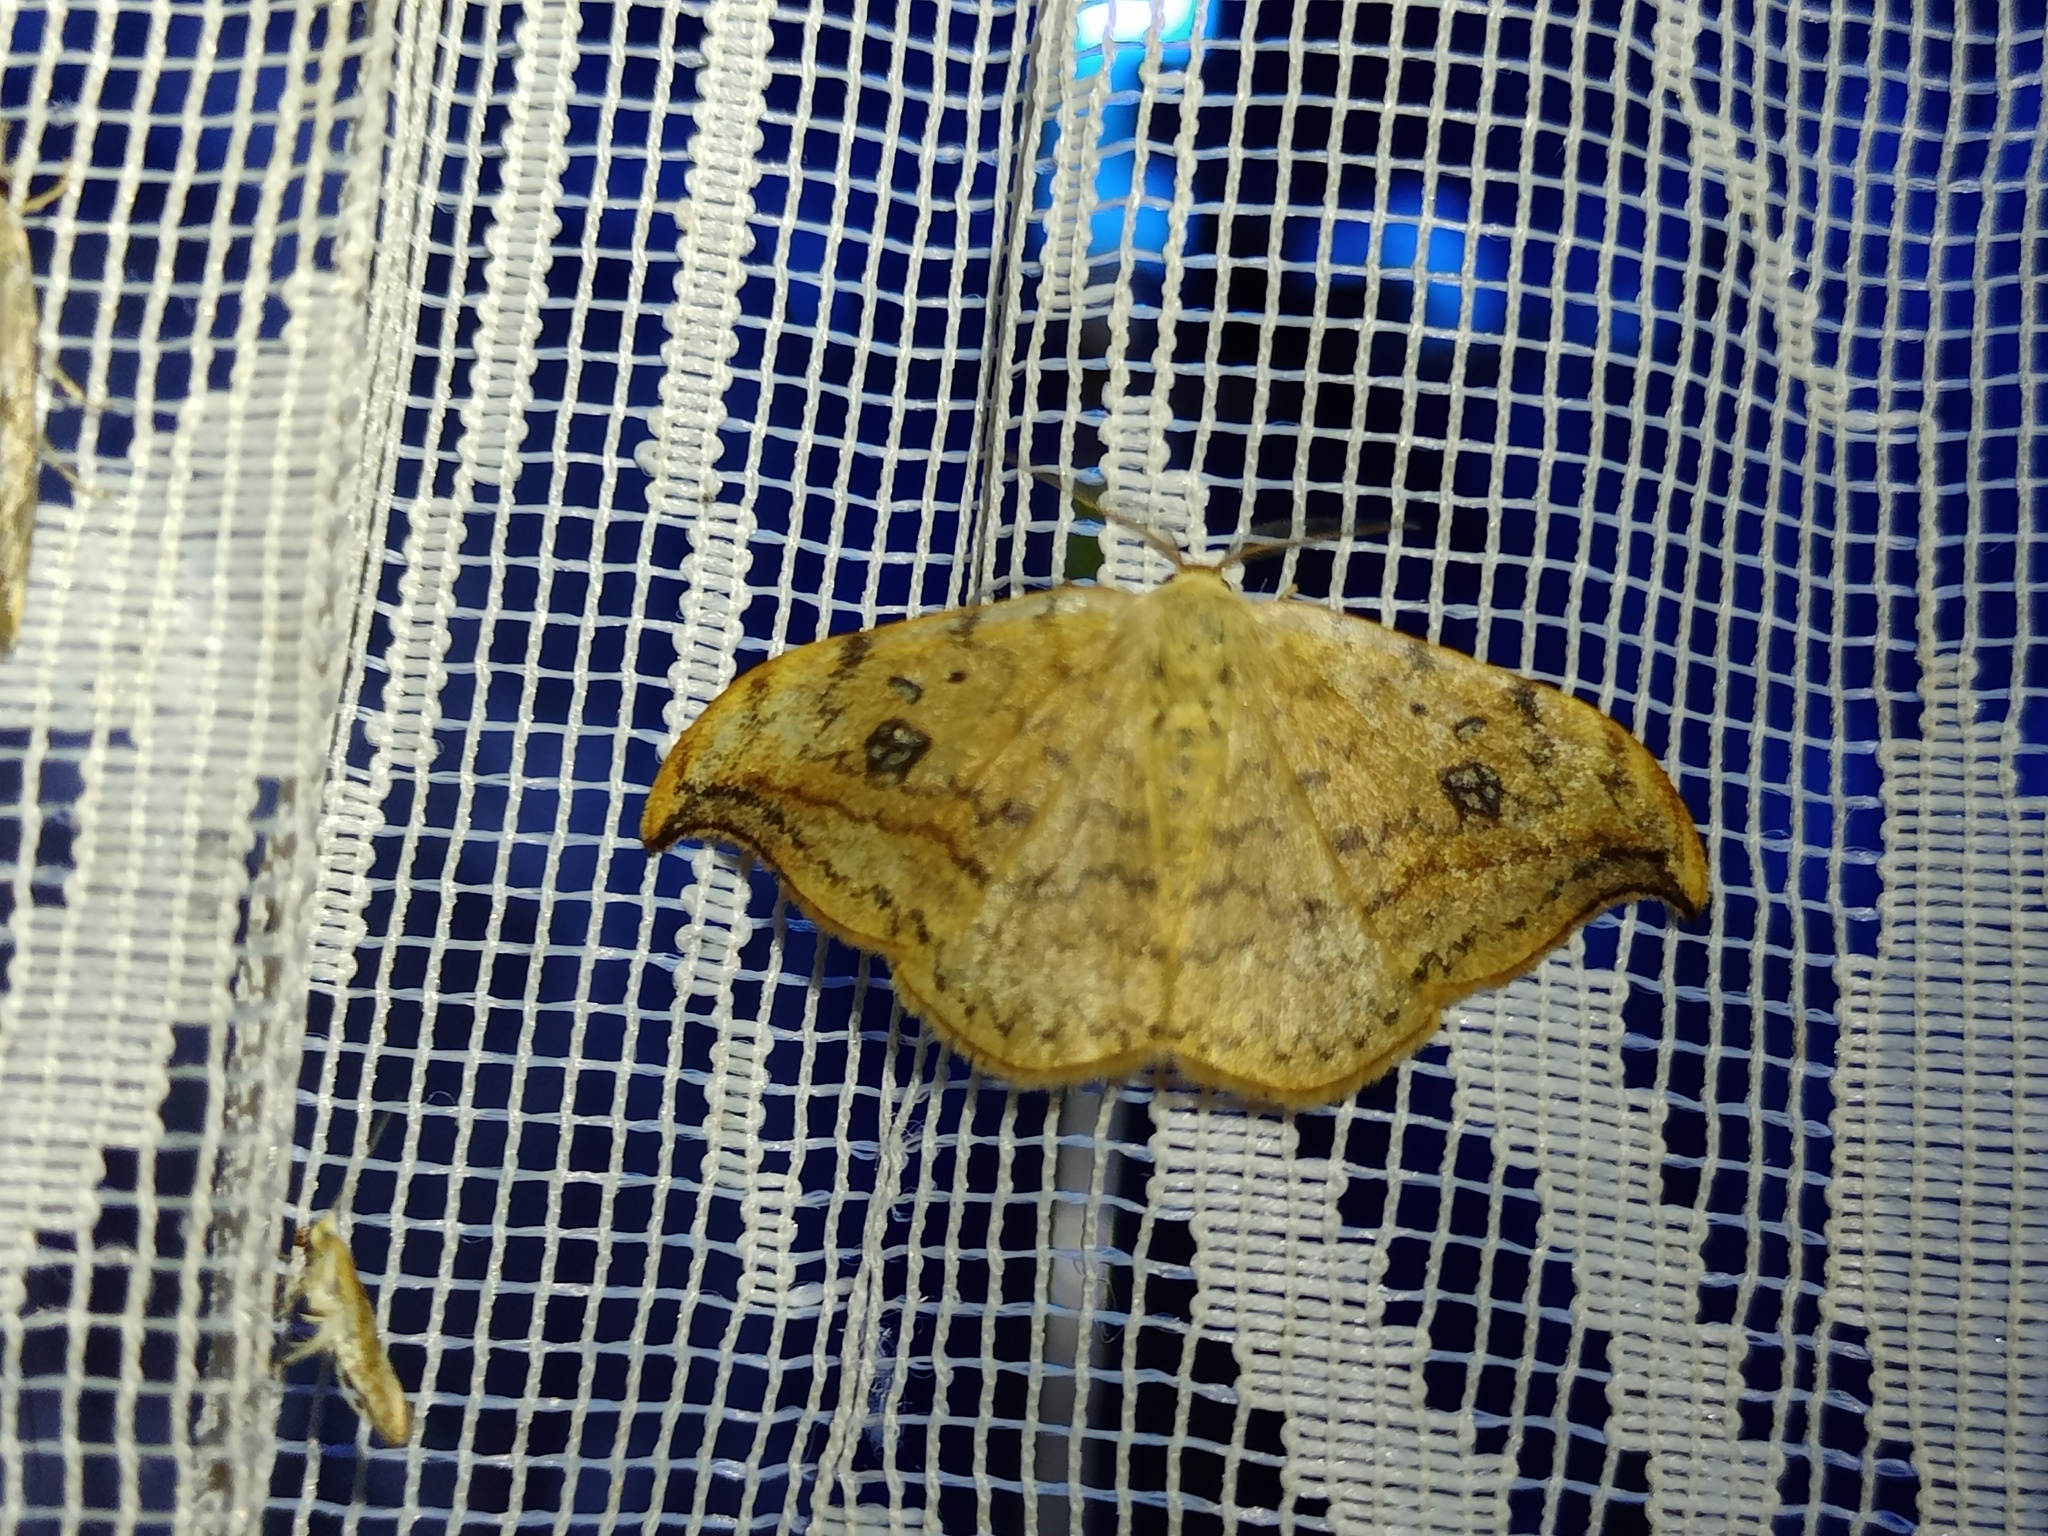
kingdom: Animalia
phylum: Arthropoda
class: Insecta
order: Lepidoptera
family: Drepanidae
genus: Drepana
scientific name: Drepana falcataria
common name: Pebble hook-tip
